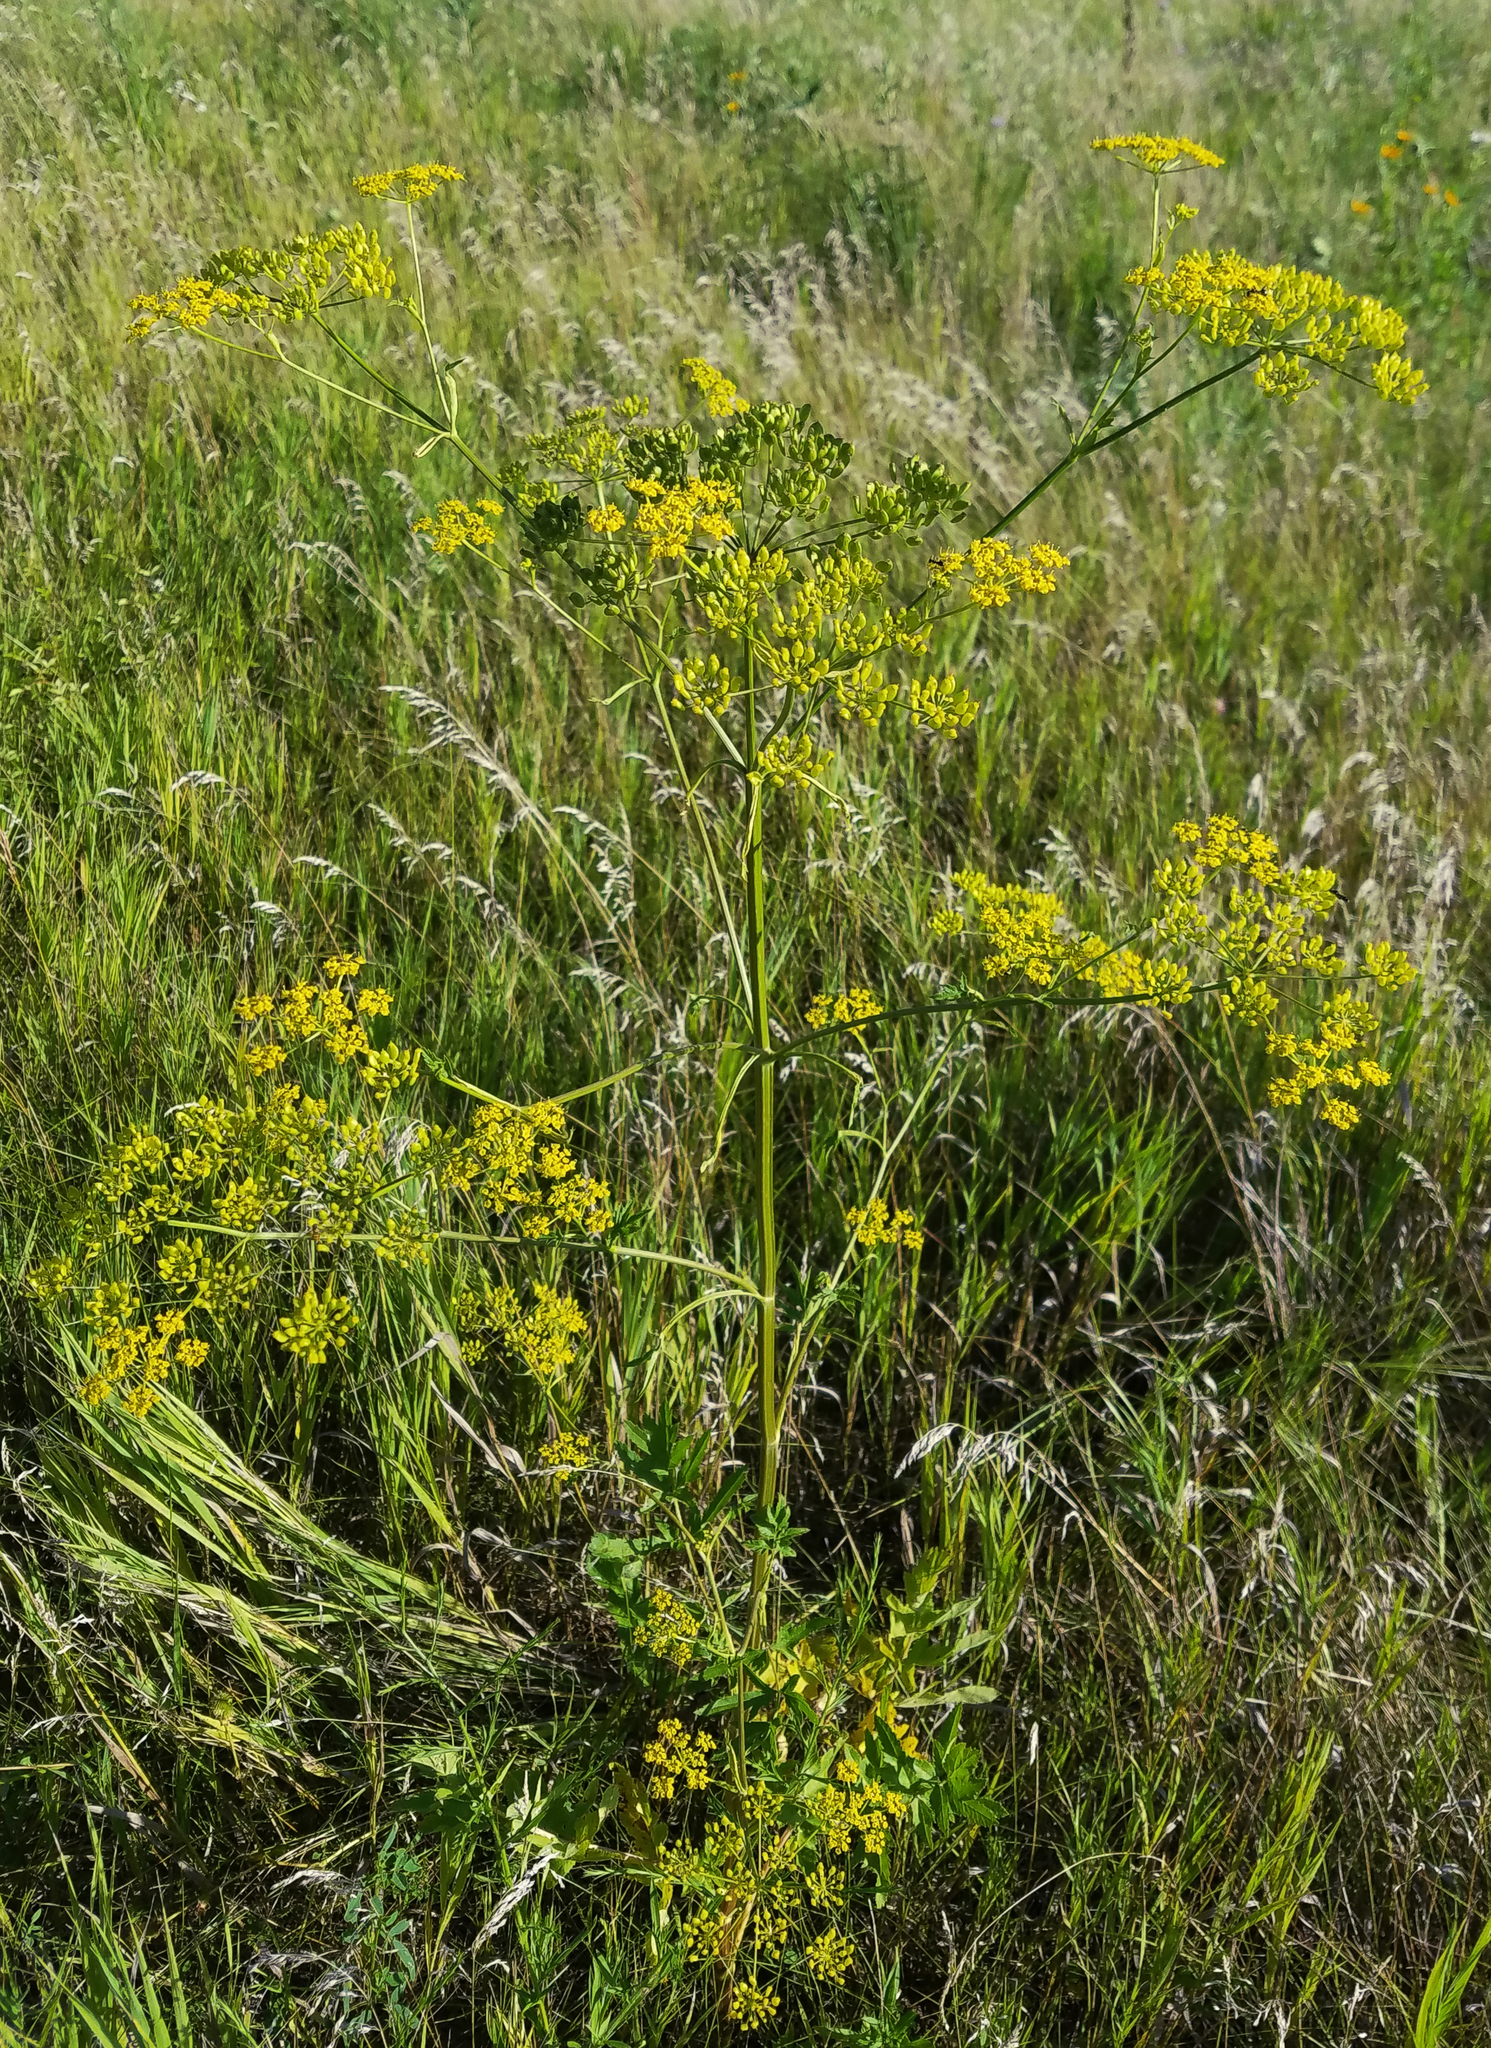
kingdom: Plantae
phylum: Tracheophyta
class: Magnoliopsida
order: Apiales
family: Apiaceae
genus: Pastinaca
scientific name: Pastinaca sativa
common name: Wild parsnip
